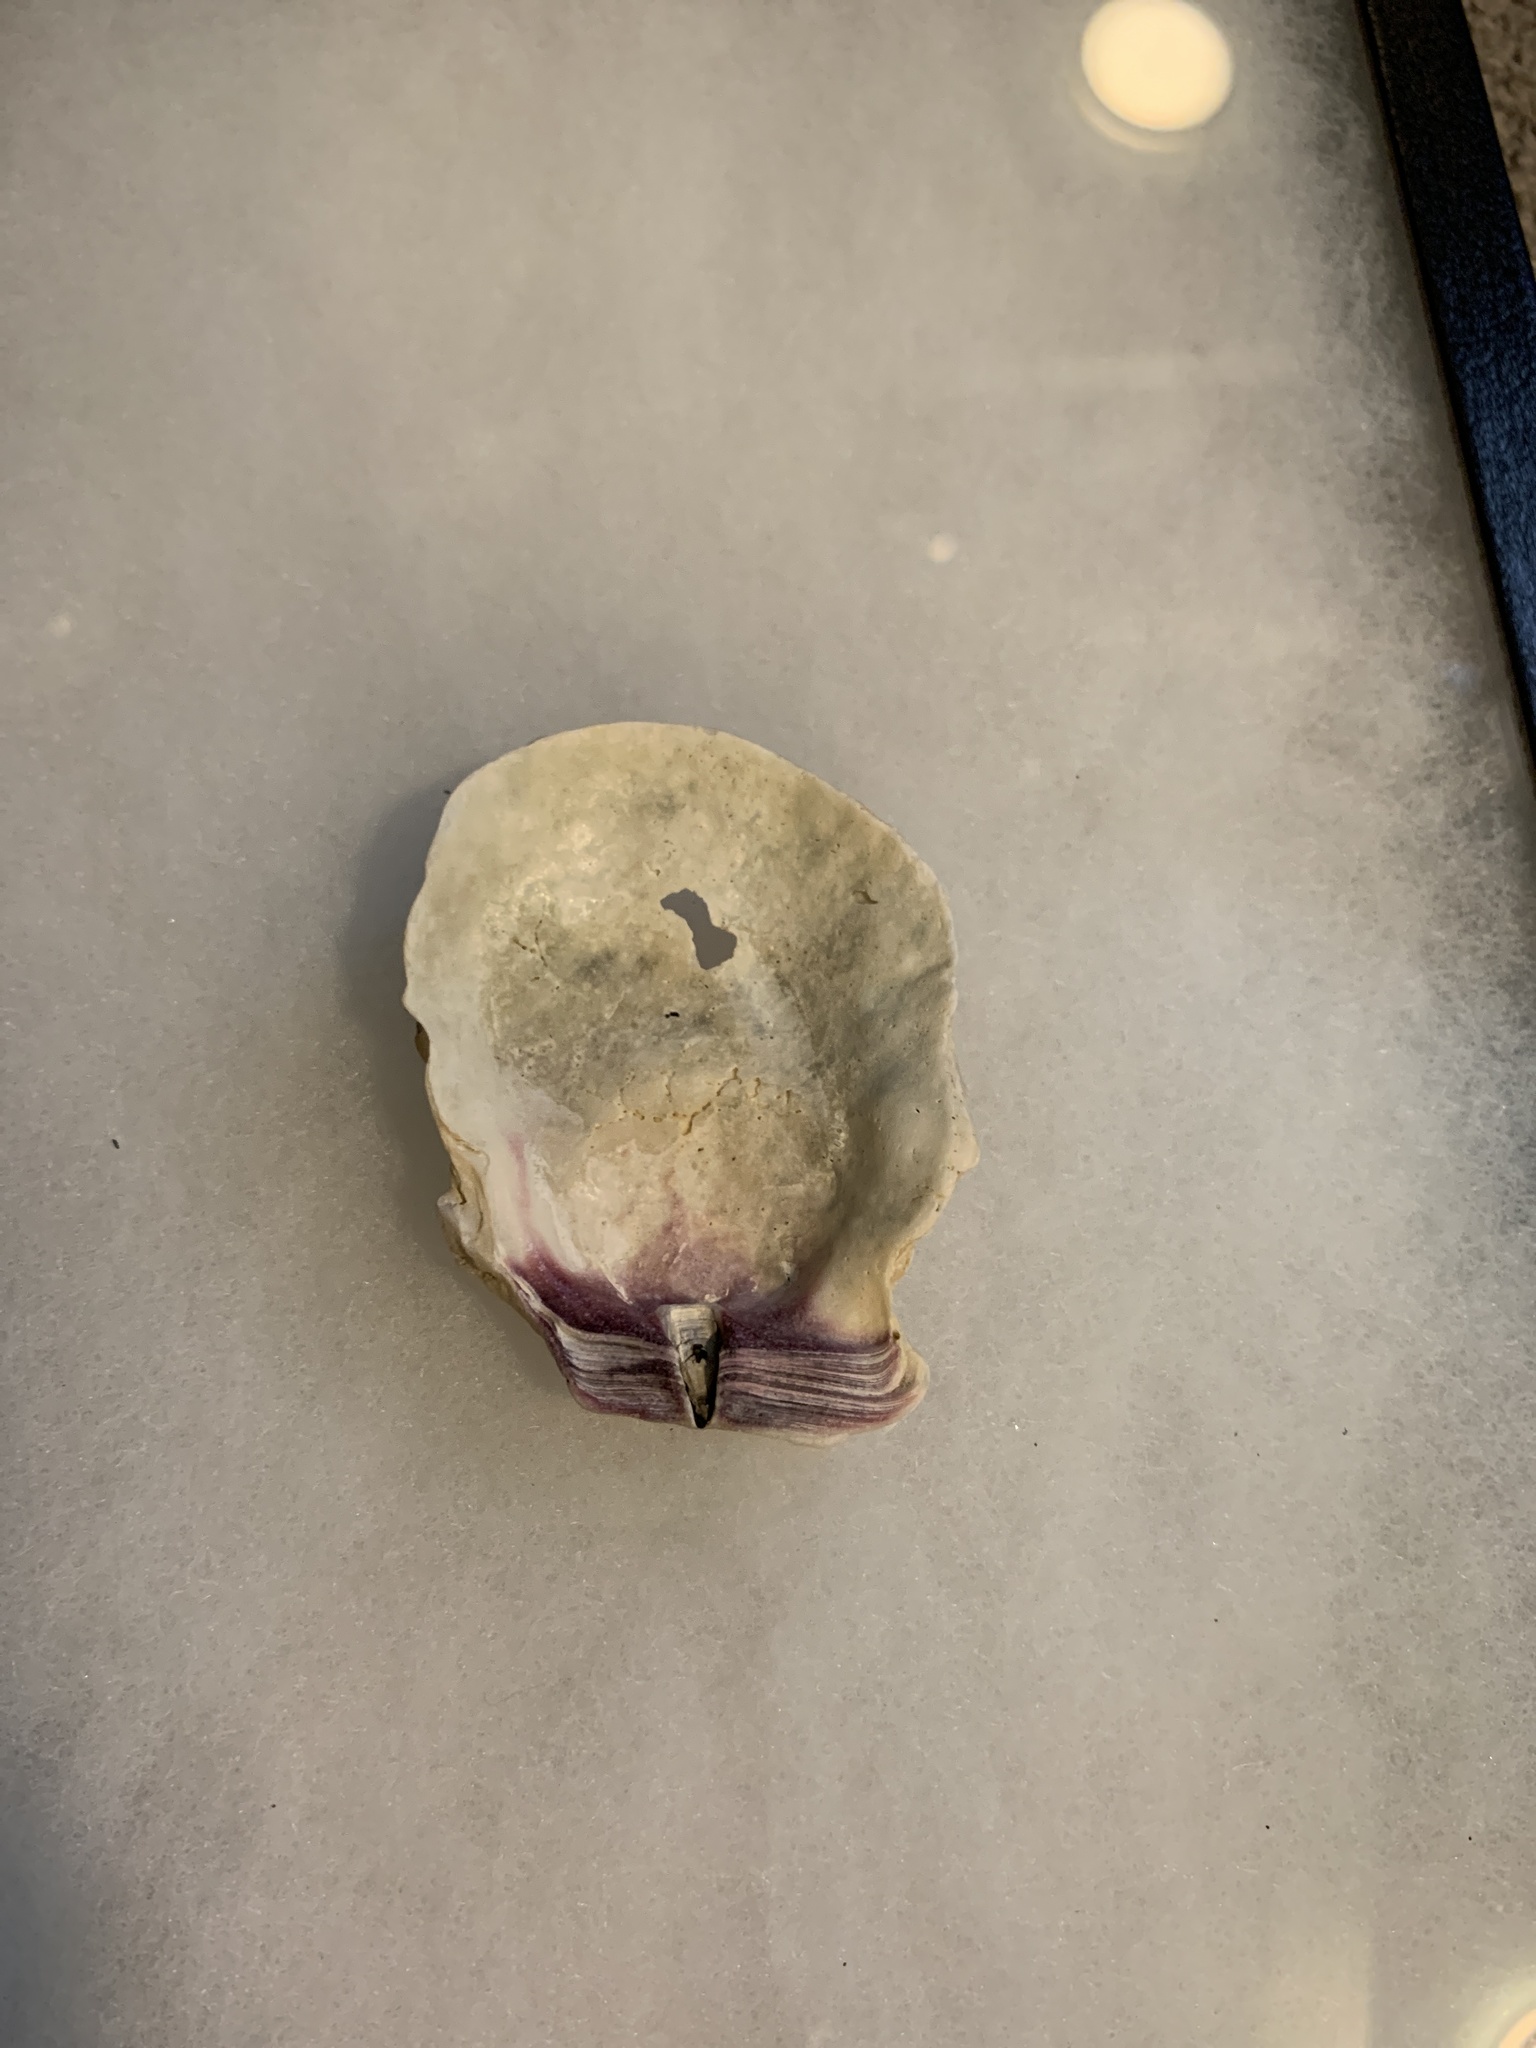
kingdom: Animalia
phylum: Mollusca
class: Bivalvia
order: Pectinida
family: Pectinidae
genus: Crassadoma
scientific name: Crassadoma gigantea
